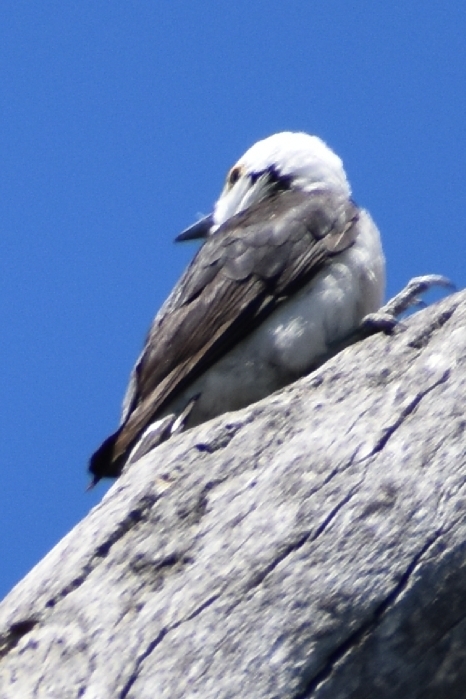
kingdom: Animalia
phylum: Chordata
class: Aves
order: Piciformes
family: Picidae
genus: Melanerpes
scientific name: Melanerpes candidus
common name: White woodpecker
